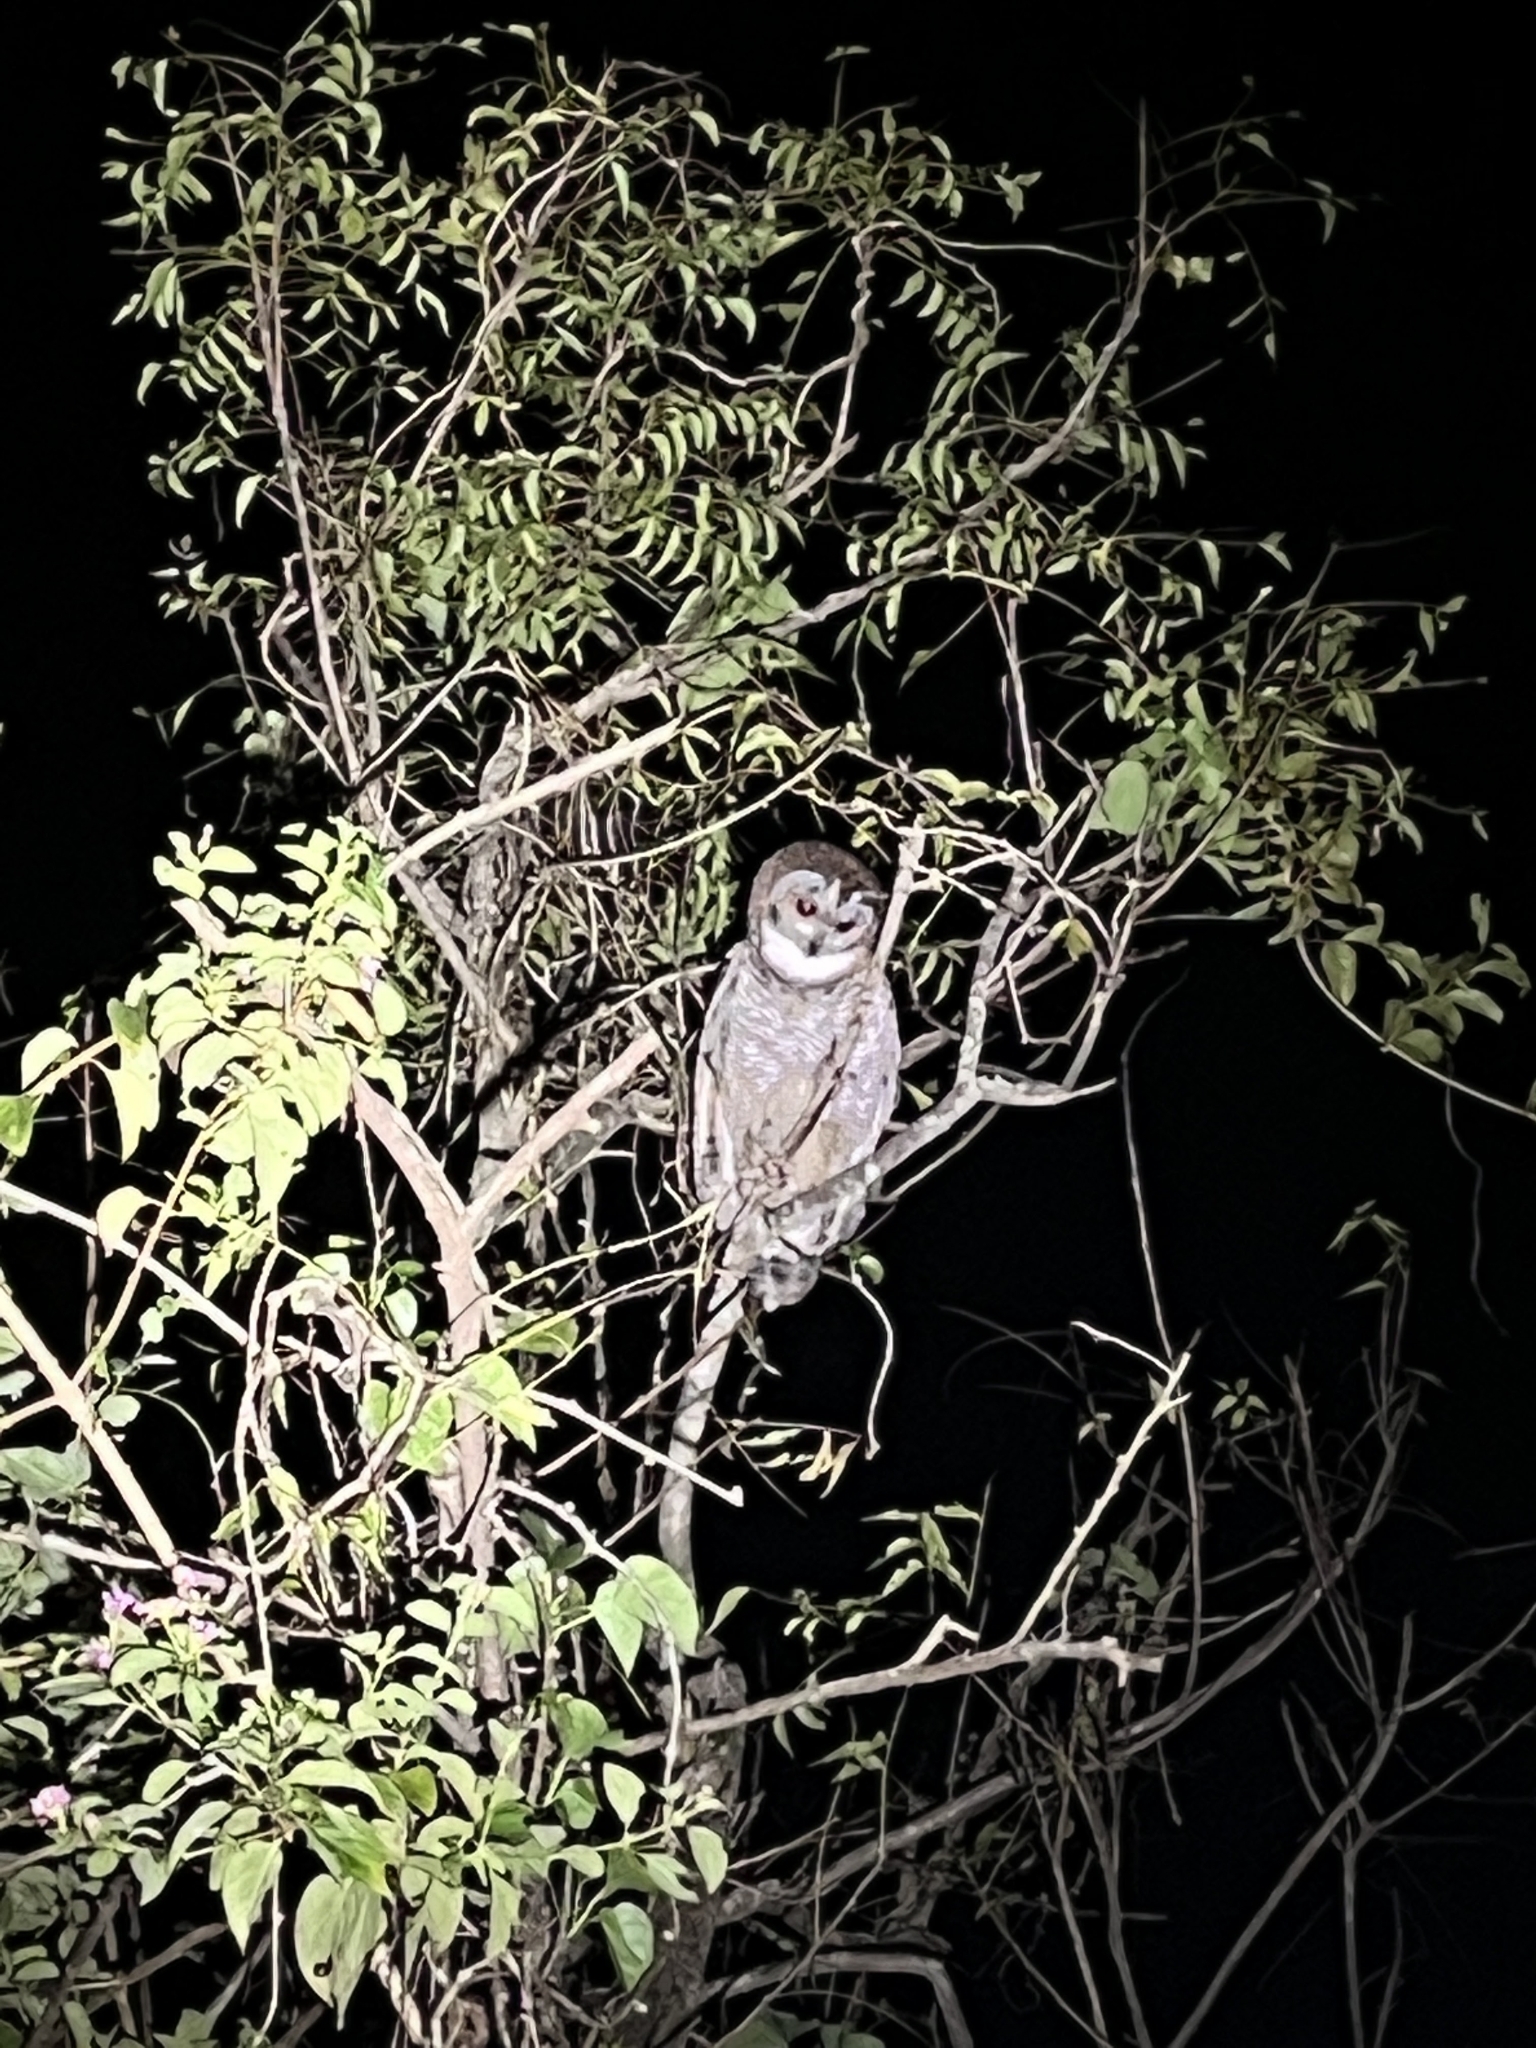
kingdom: Animalia
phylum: Chordata
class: Aves
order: Strigiformes
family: Strigidae
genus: Strix
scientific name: Strix ocellata
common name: Mottled wood owl
